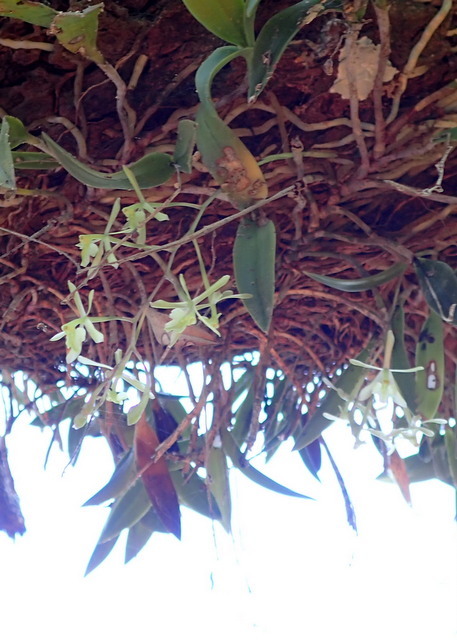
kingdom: Plantae
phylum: Tracheophyta
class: Liliopsida
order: Asparagales
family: Orchidaceae
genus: Epidendrum
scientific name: Epidendrum conopseum
